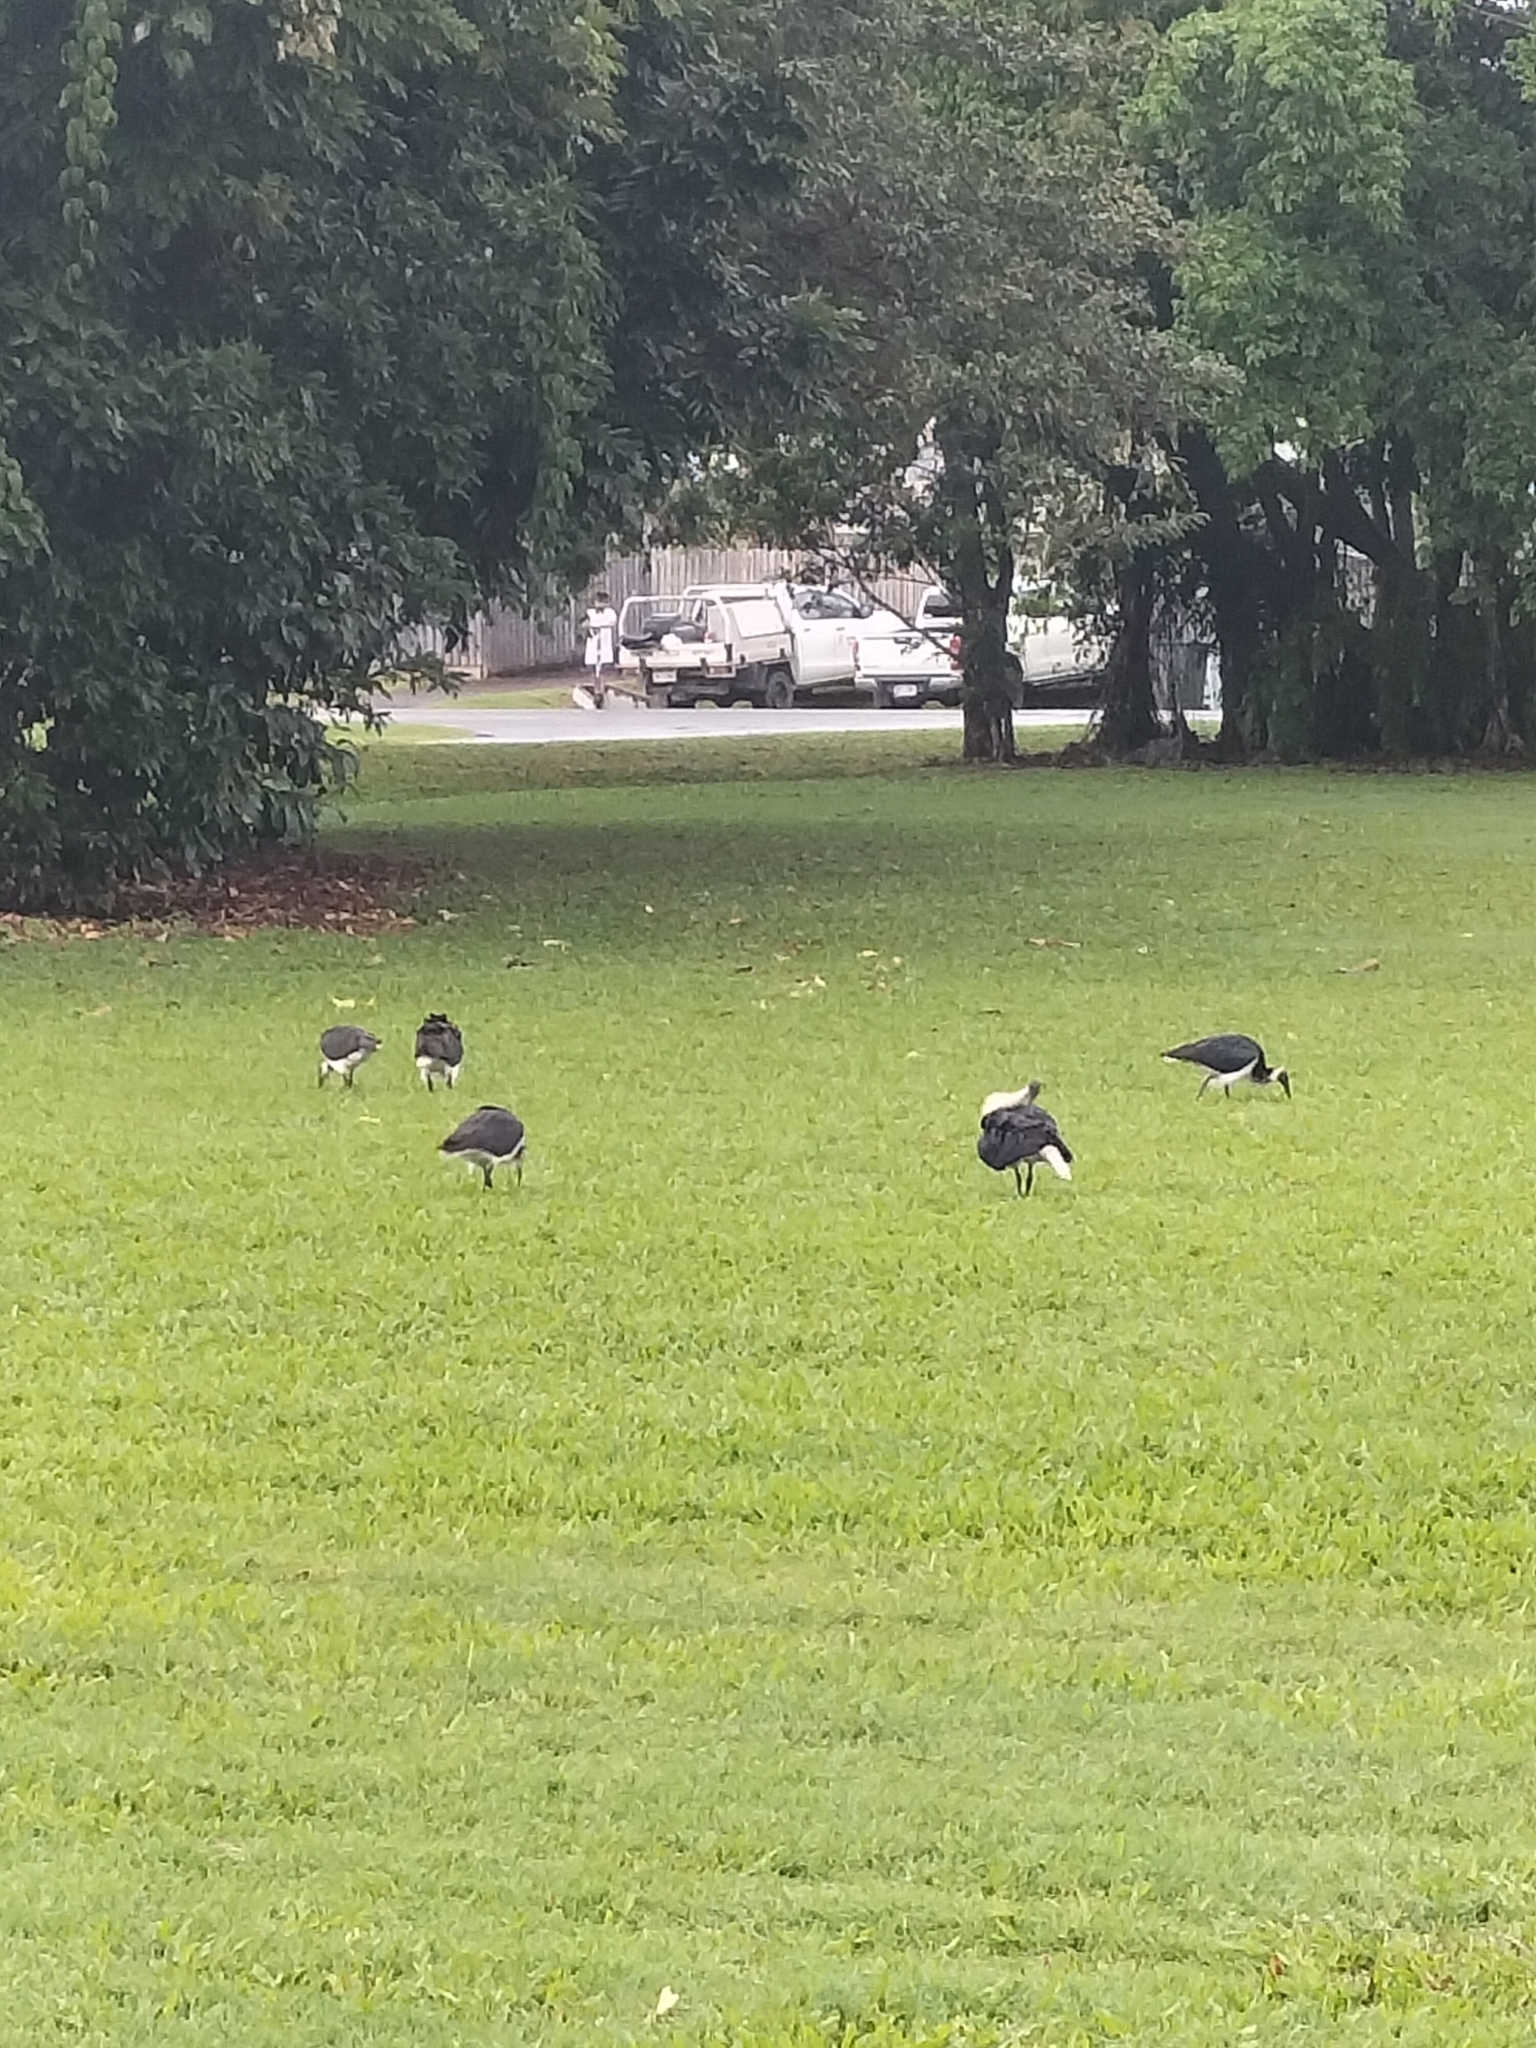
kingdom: Animalia
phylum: Chordata
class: Aves
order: Pelecaniformes
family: Threskiornithidae
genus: Threskiornis
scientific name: Threskiornis spinicollis
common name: Straw-necked ibis
